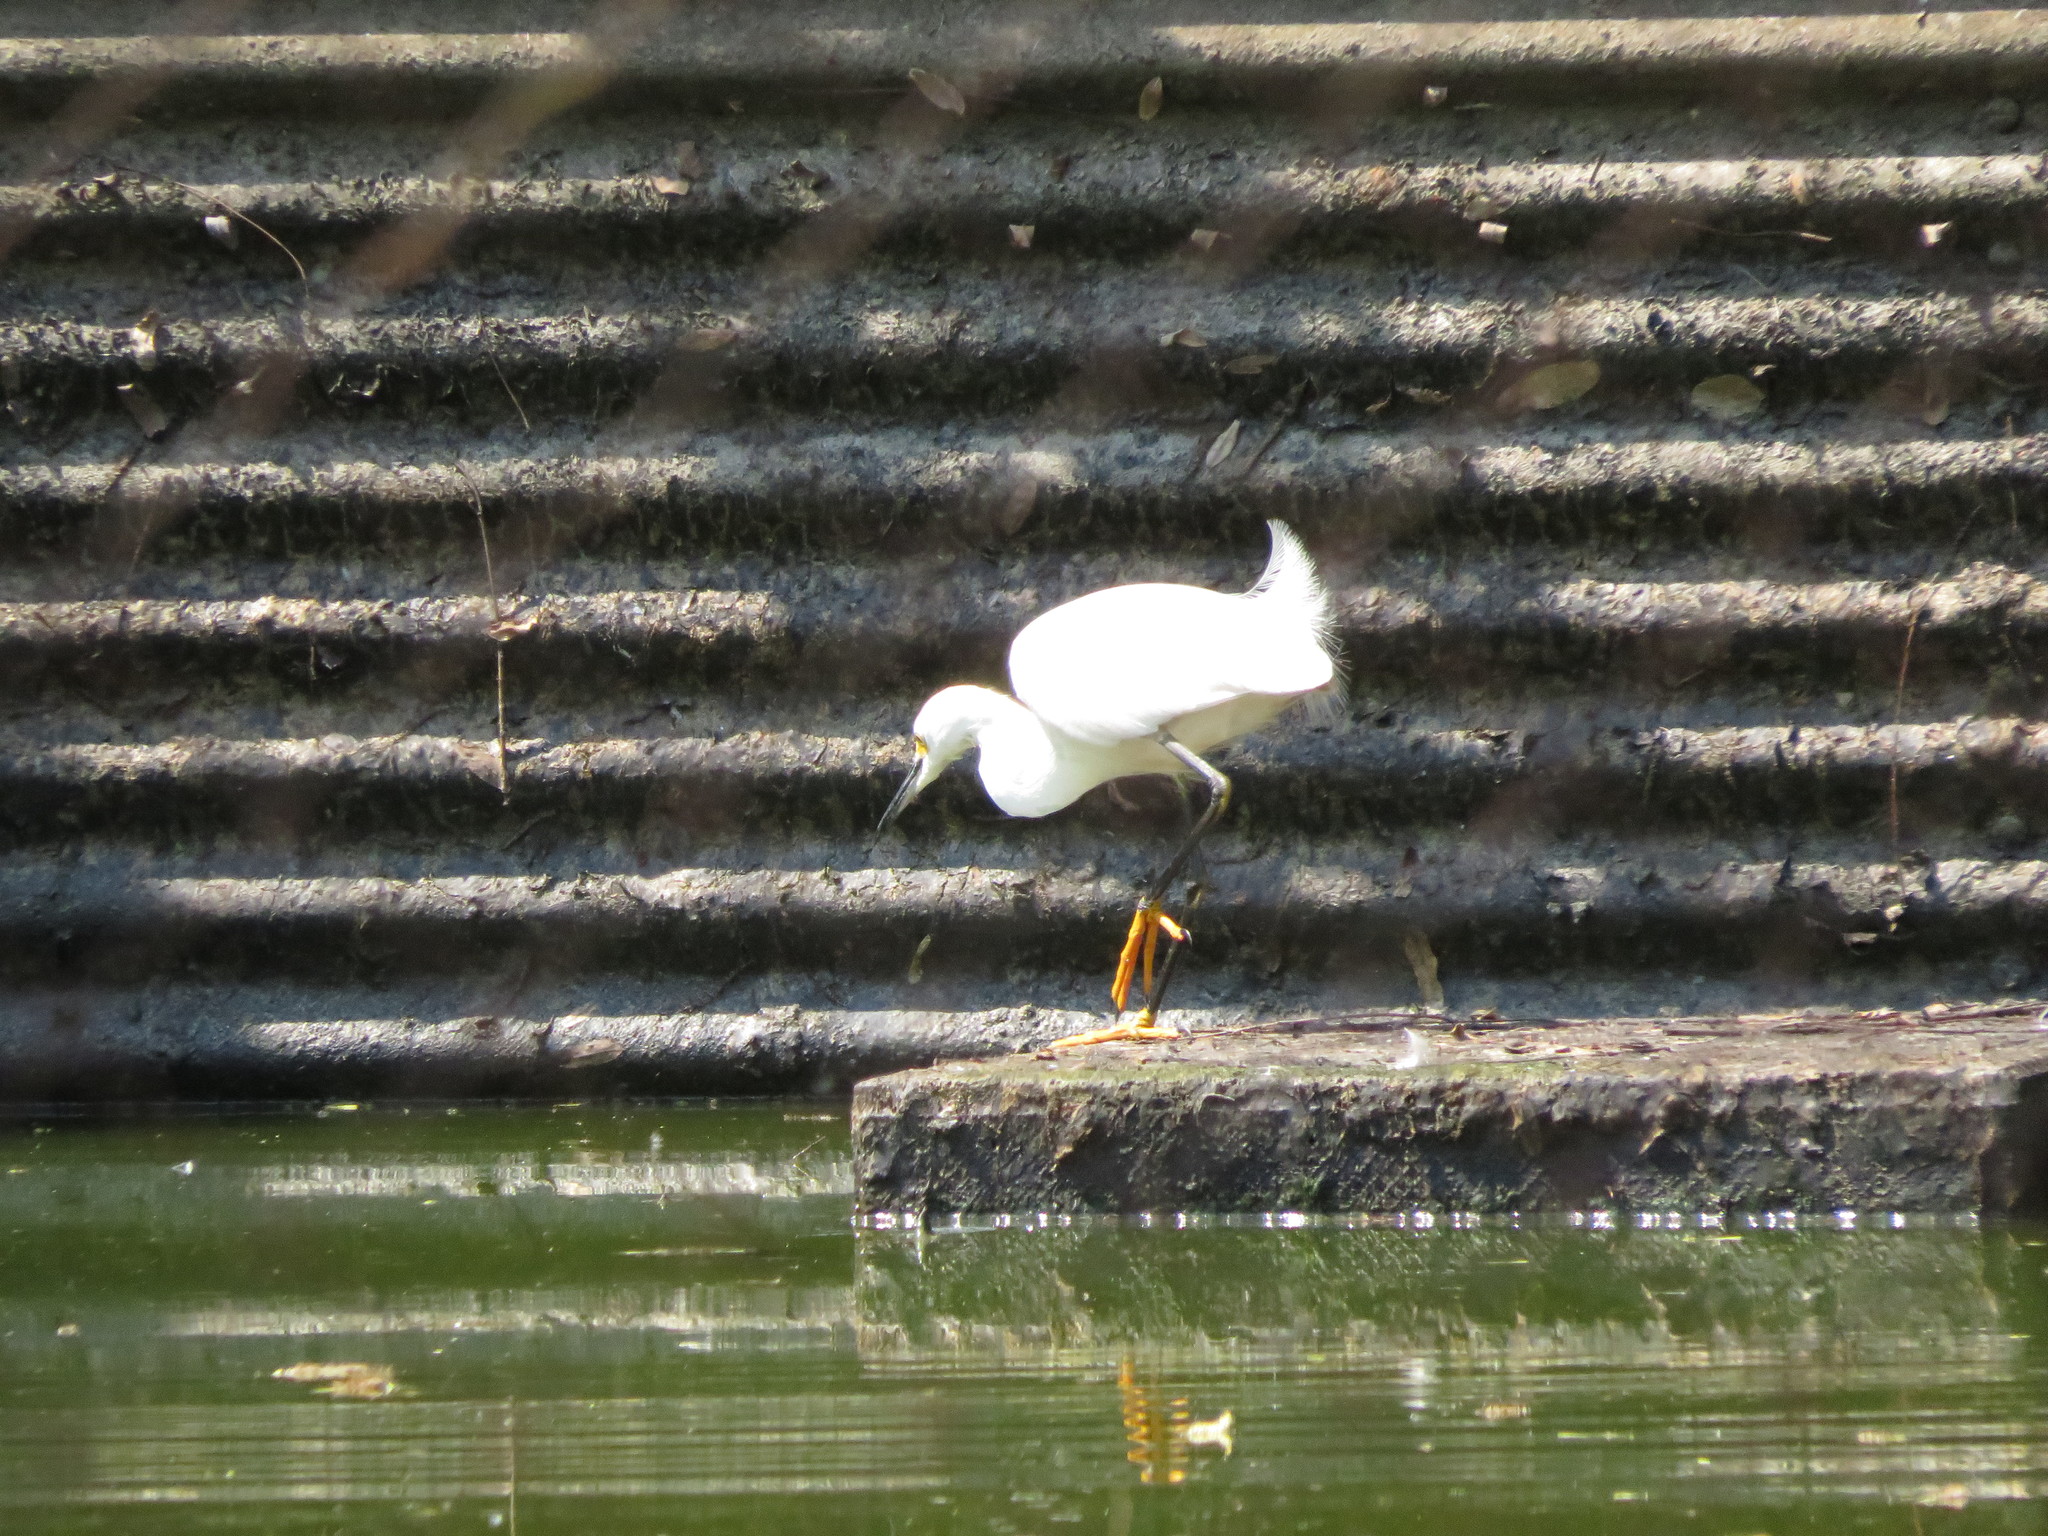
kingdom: Animalia
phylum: Chordata
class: Aves
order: Pelecaniformes
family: Ardeidae
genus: Egretta
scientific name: Egretta thula
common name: Snowy egret
